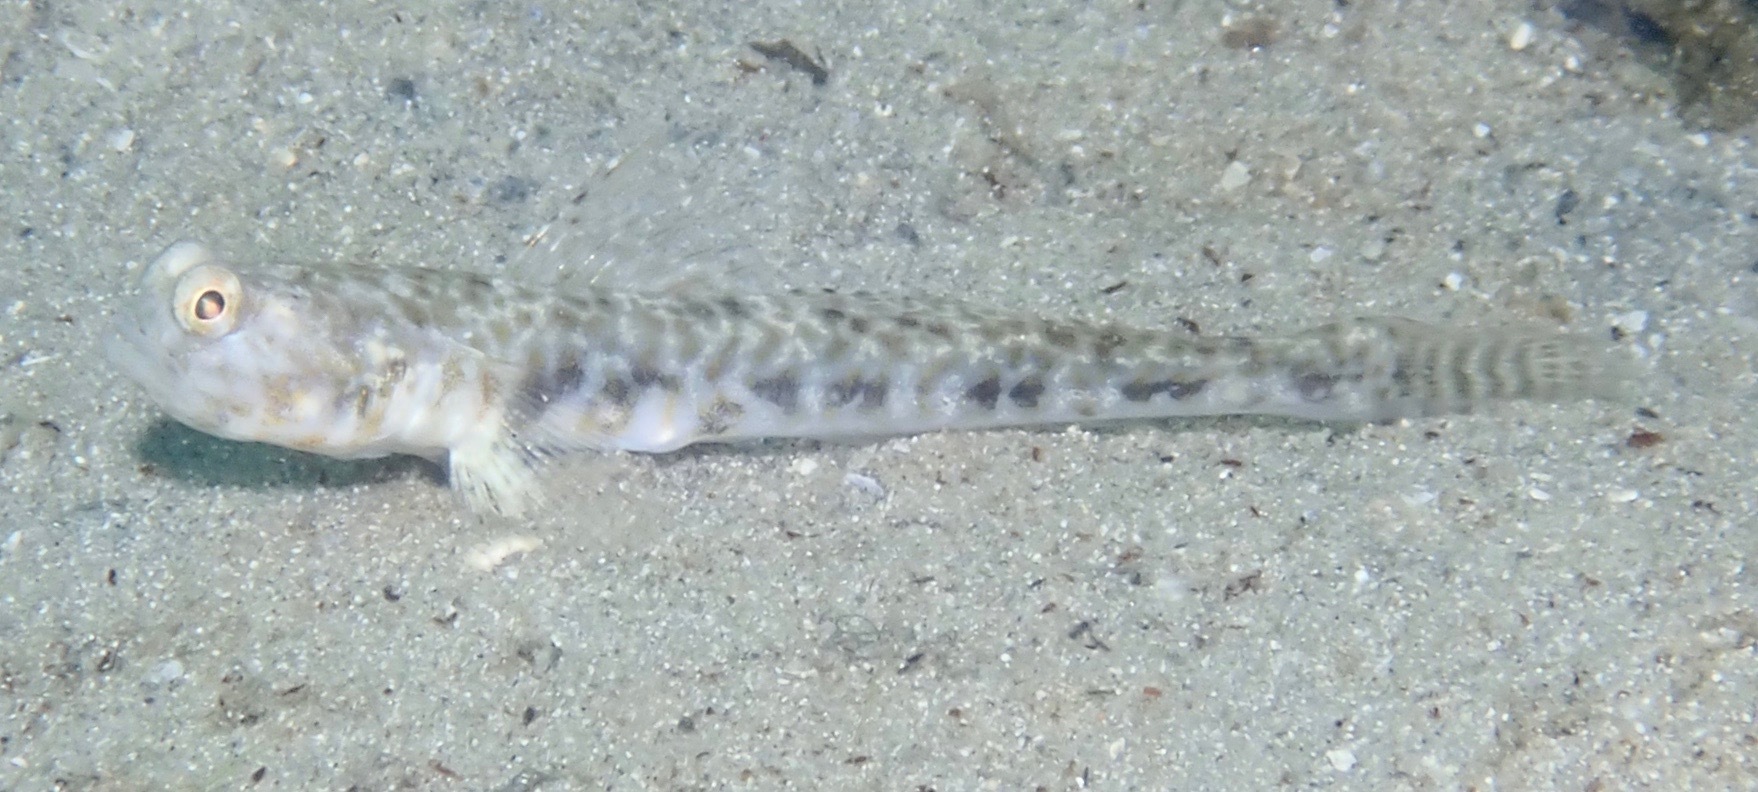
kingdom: Animalia
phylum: Chordata
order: Perciformes
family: Gobiidae
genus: Nes
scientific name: Nes longus
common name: Orangespotted goby
